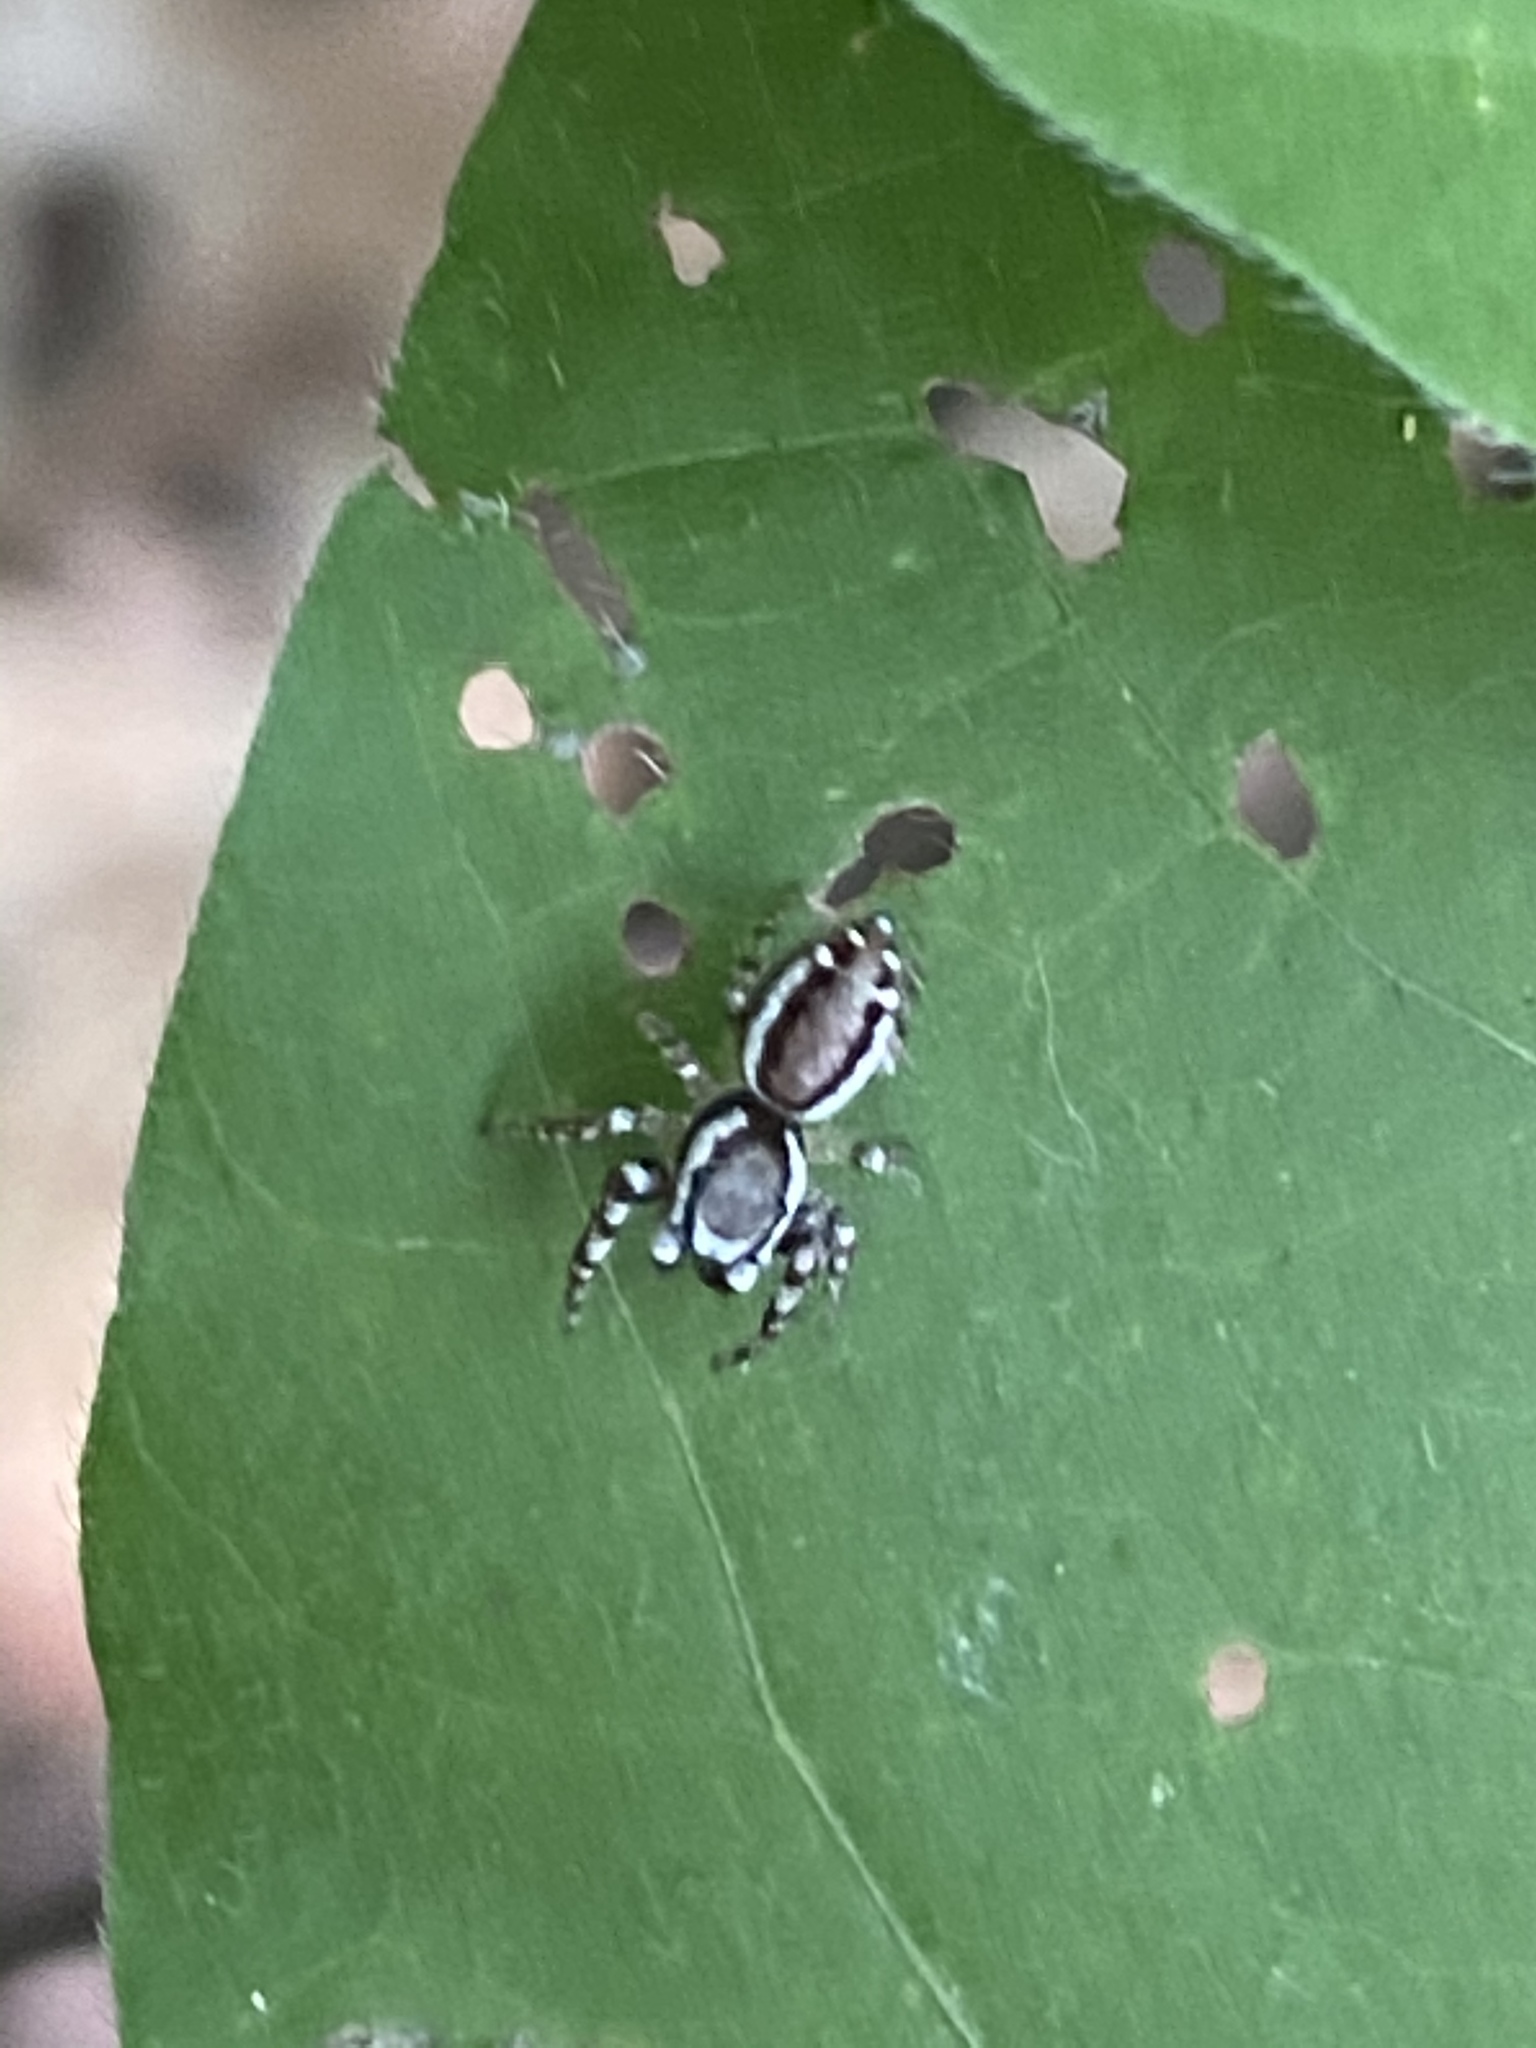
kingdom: Animalia
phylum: Arthropoda
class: Arachnida
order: Araneae
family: Salticidae
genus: Pelegrina
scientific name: Pelegrina proterva
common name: Common white-cheeked jumping spider
